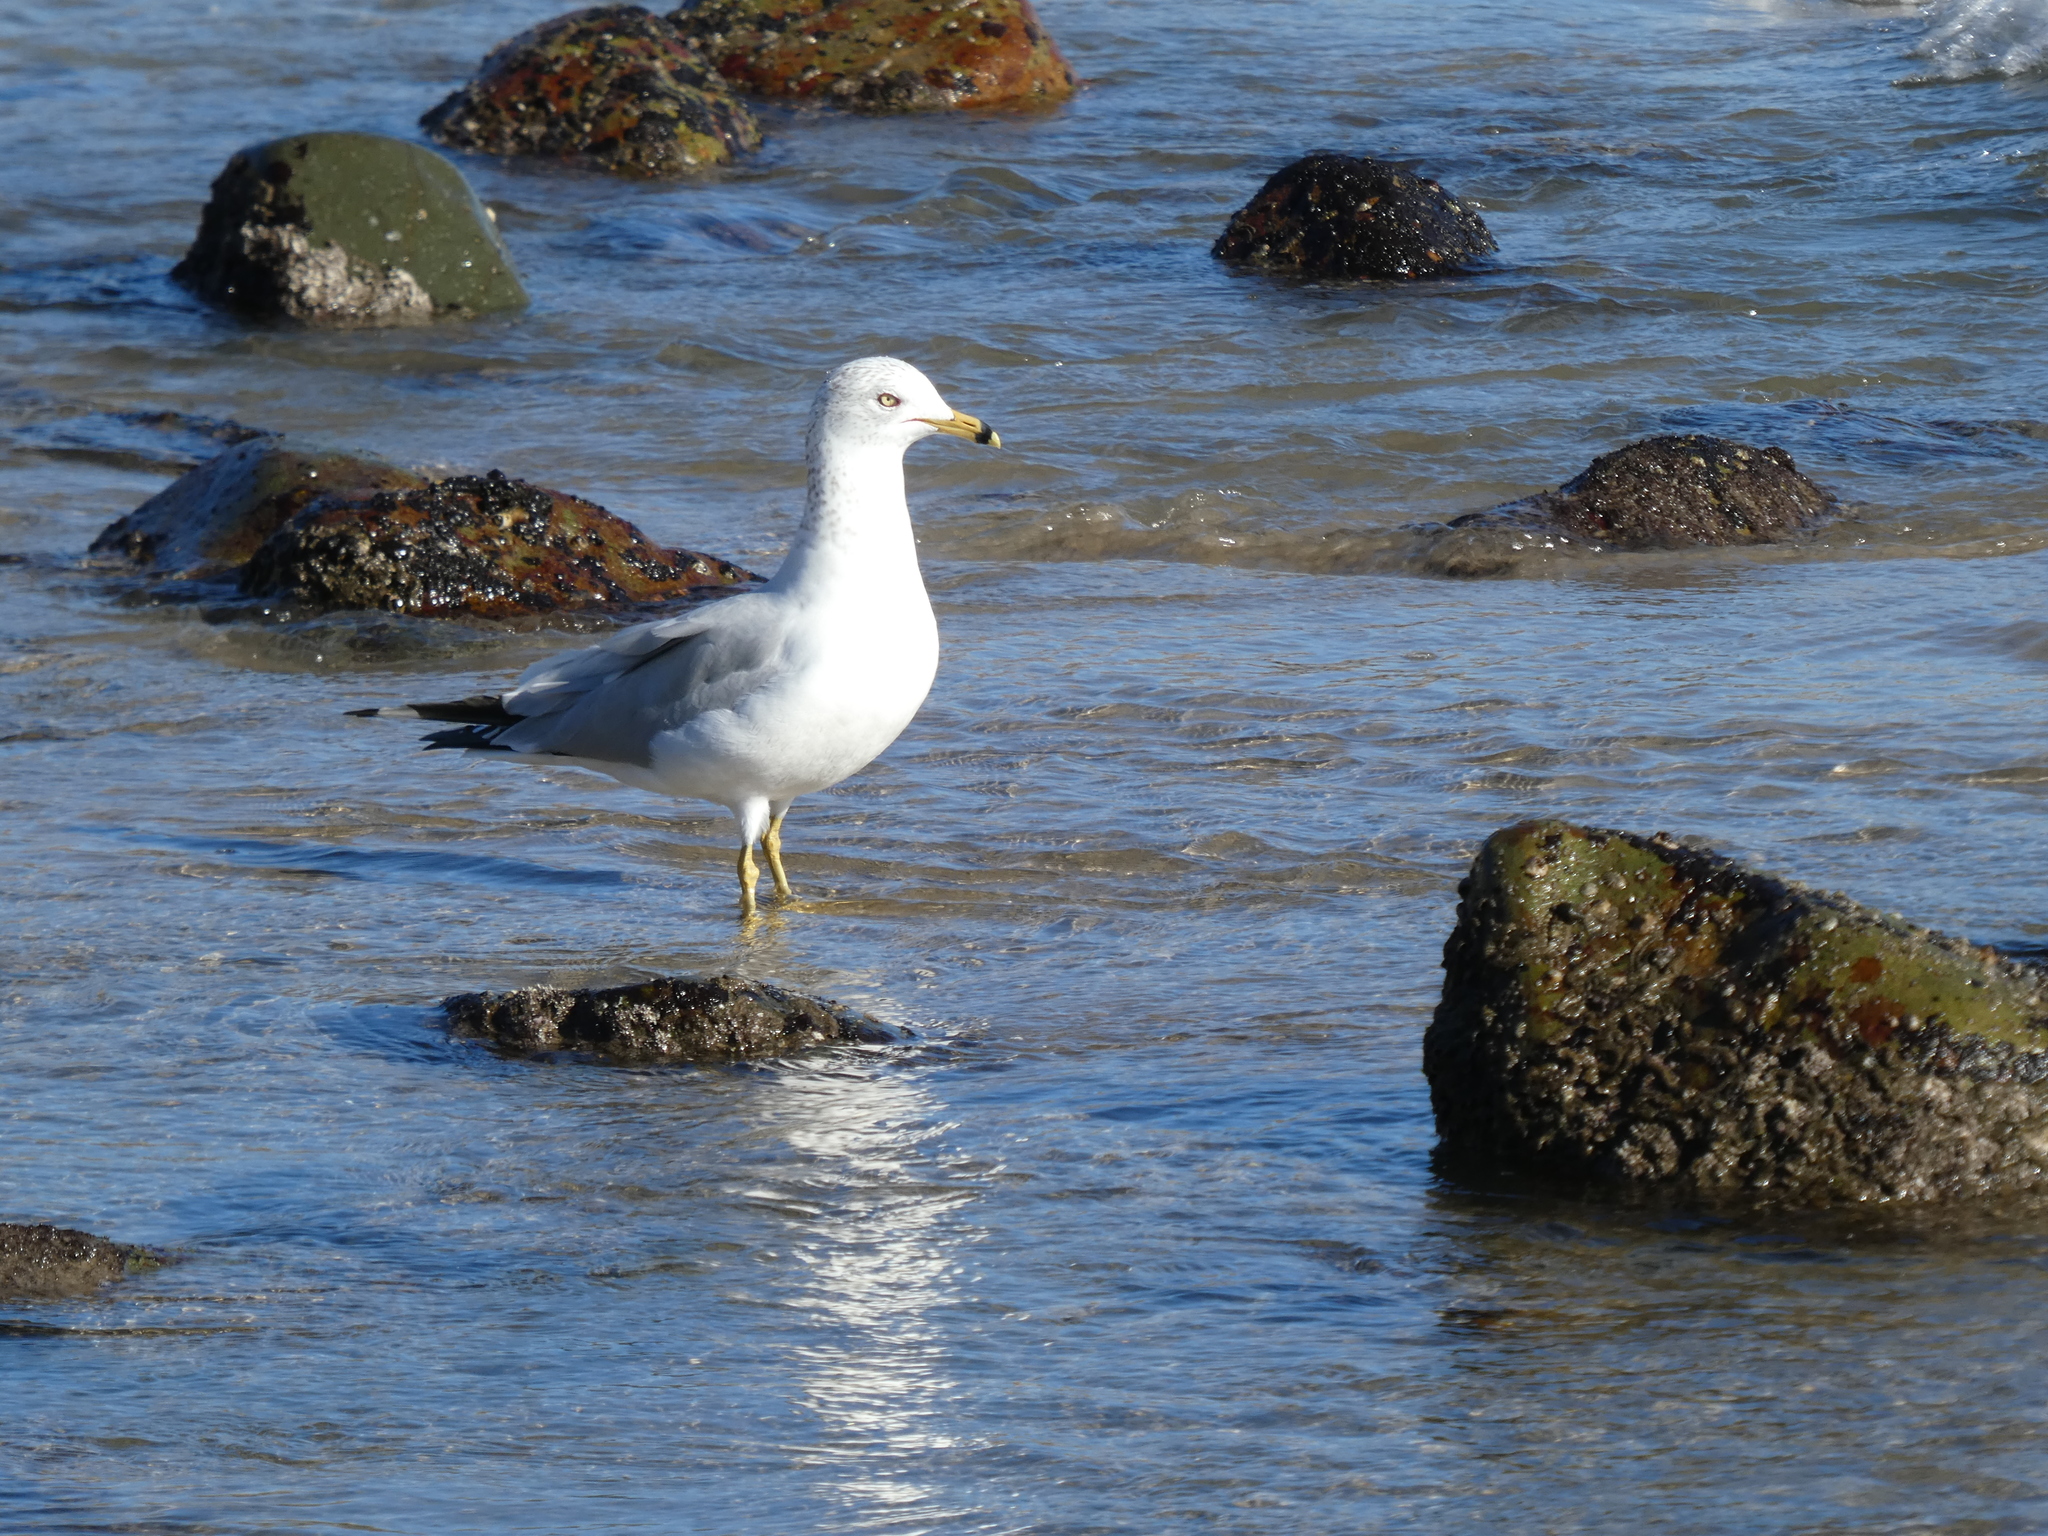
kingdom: Animalia
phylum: Chordata
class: Aves
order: Charadriiformes
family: Laridae
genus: Larus
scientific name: Larus delawarensis
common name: Ring-billed gull
